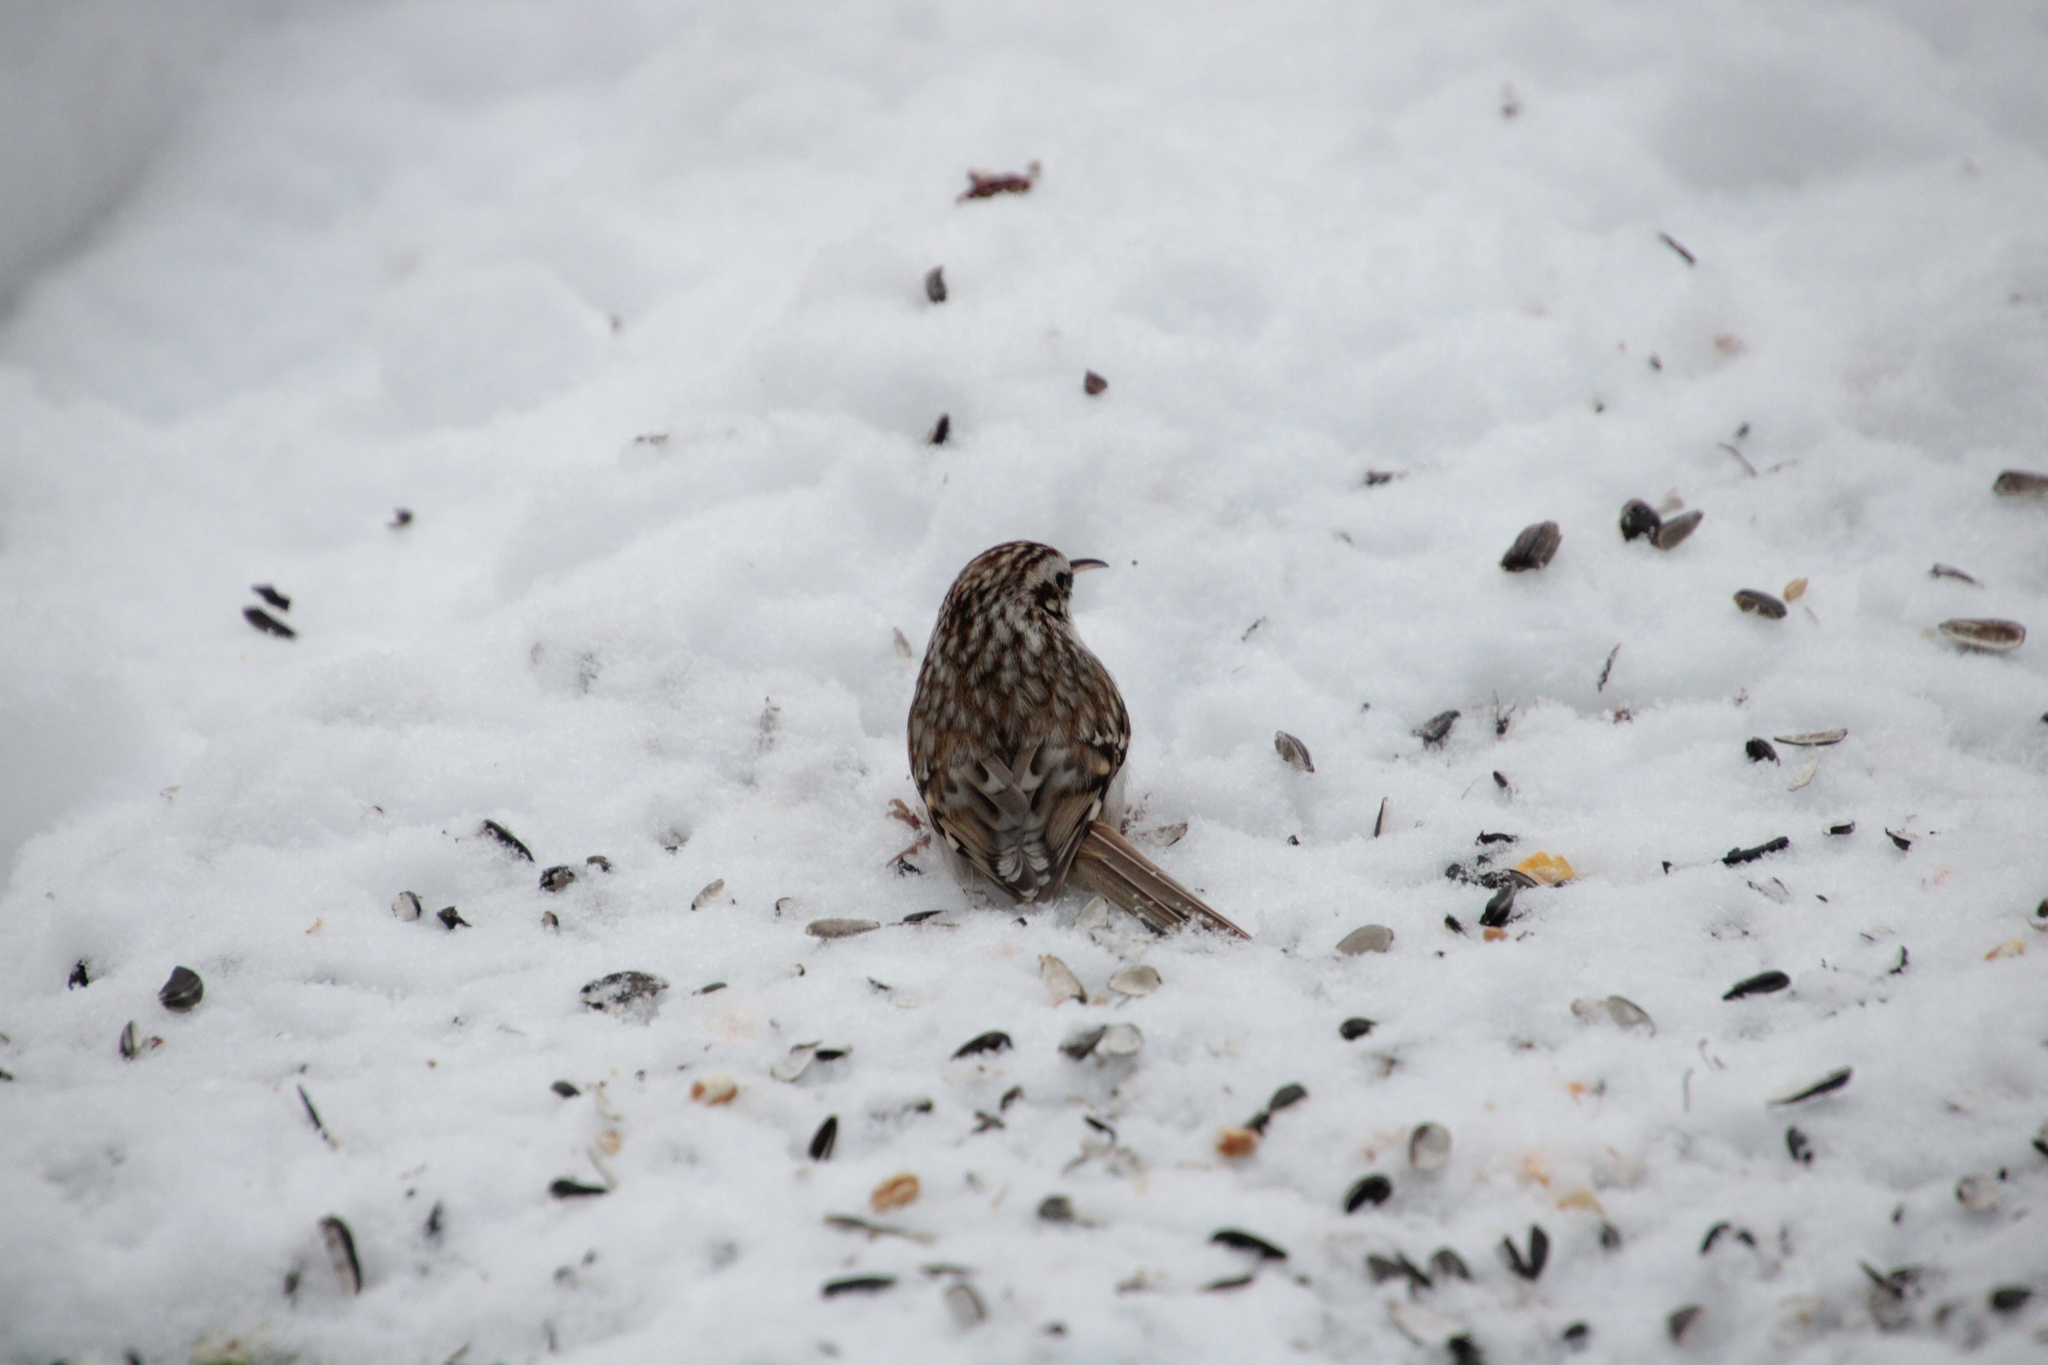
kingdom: Animalia
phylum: Chordata
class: Aves
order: Passeriformes
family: Certhiidae
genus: Certhia
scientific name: Certhia familiaris
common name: Eurasian treecreeper
